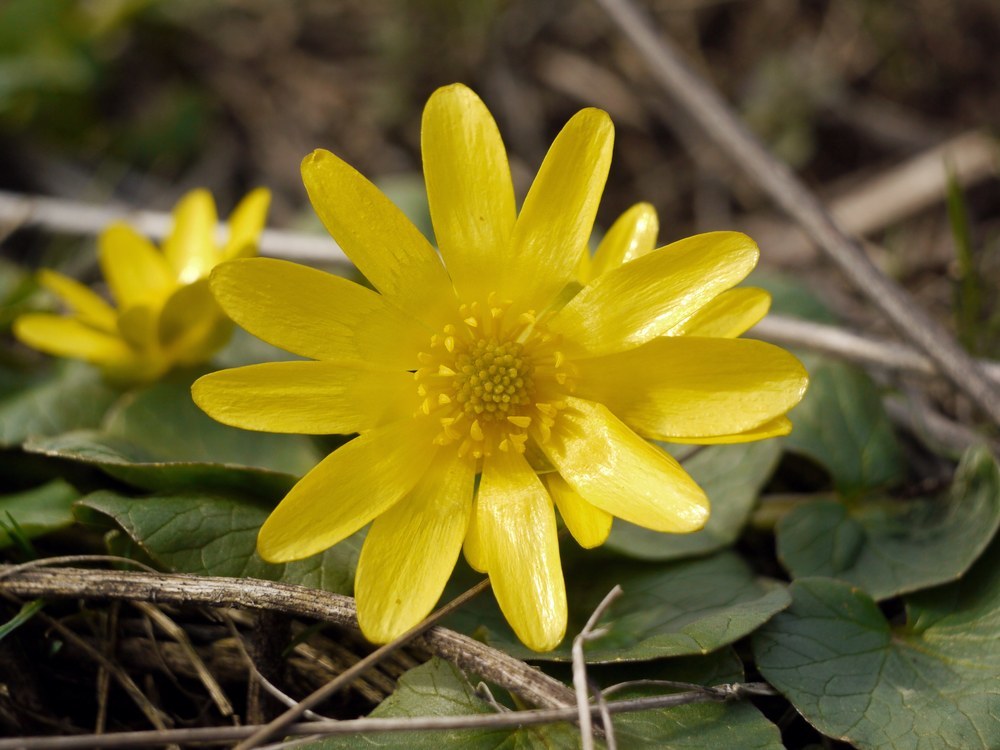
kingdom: Plantae
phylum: Tracheophyta
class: Magnoliopsida
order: Ranunculales
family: Ranunculaceae
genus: Ficaria
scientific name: Ficaria verna
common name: Lesser celandine
